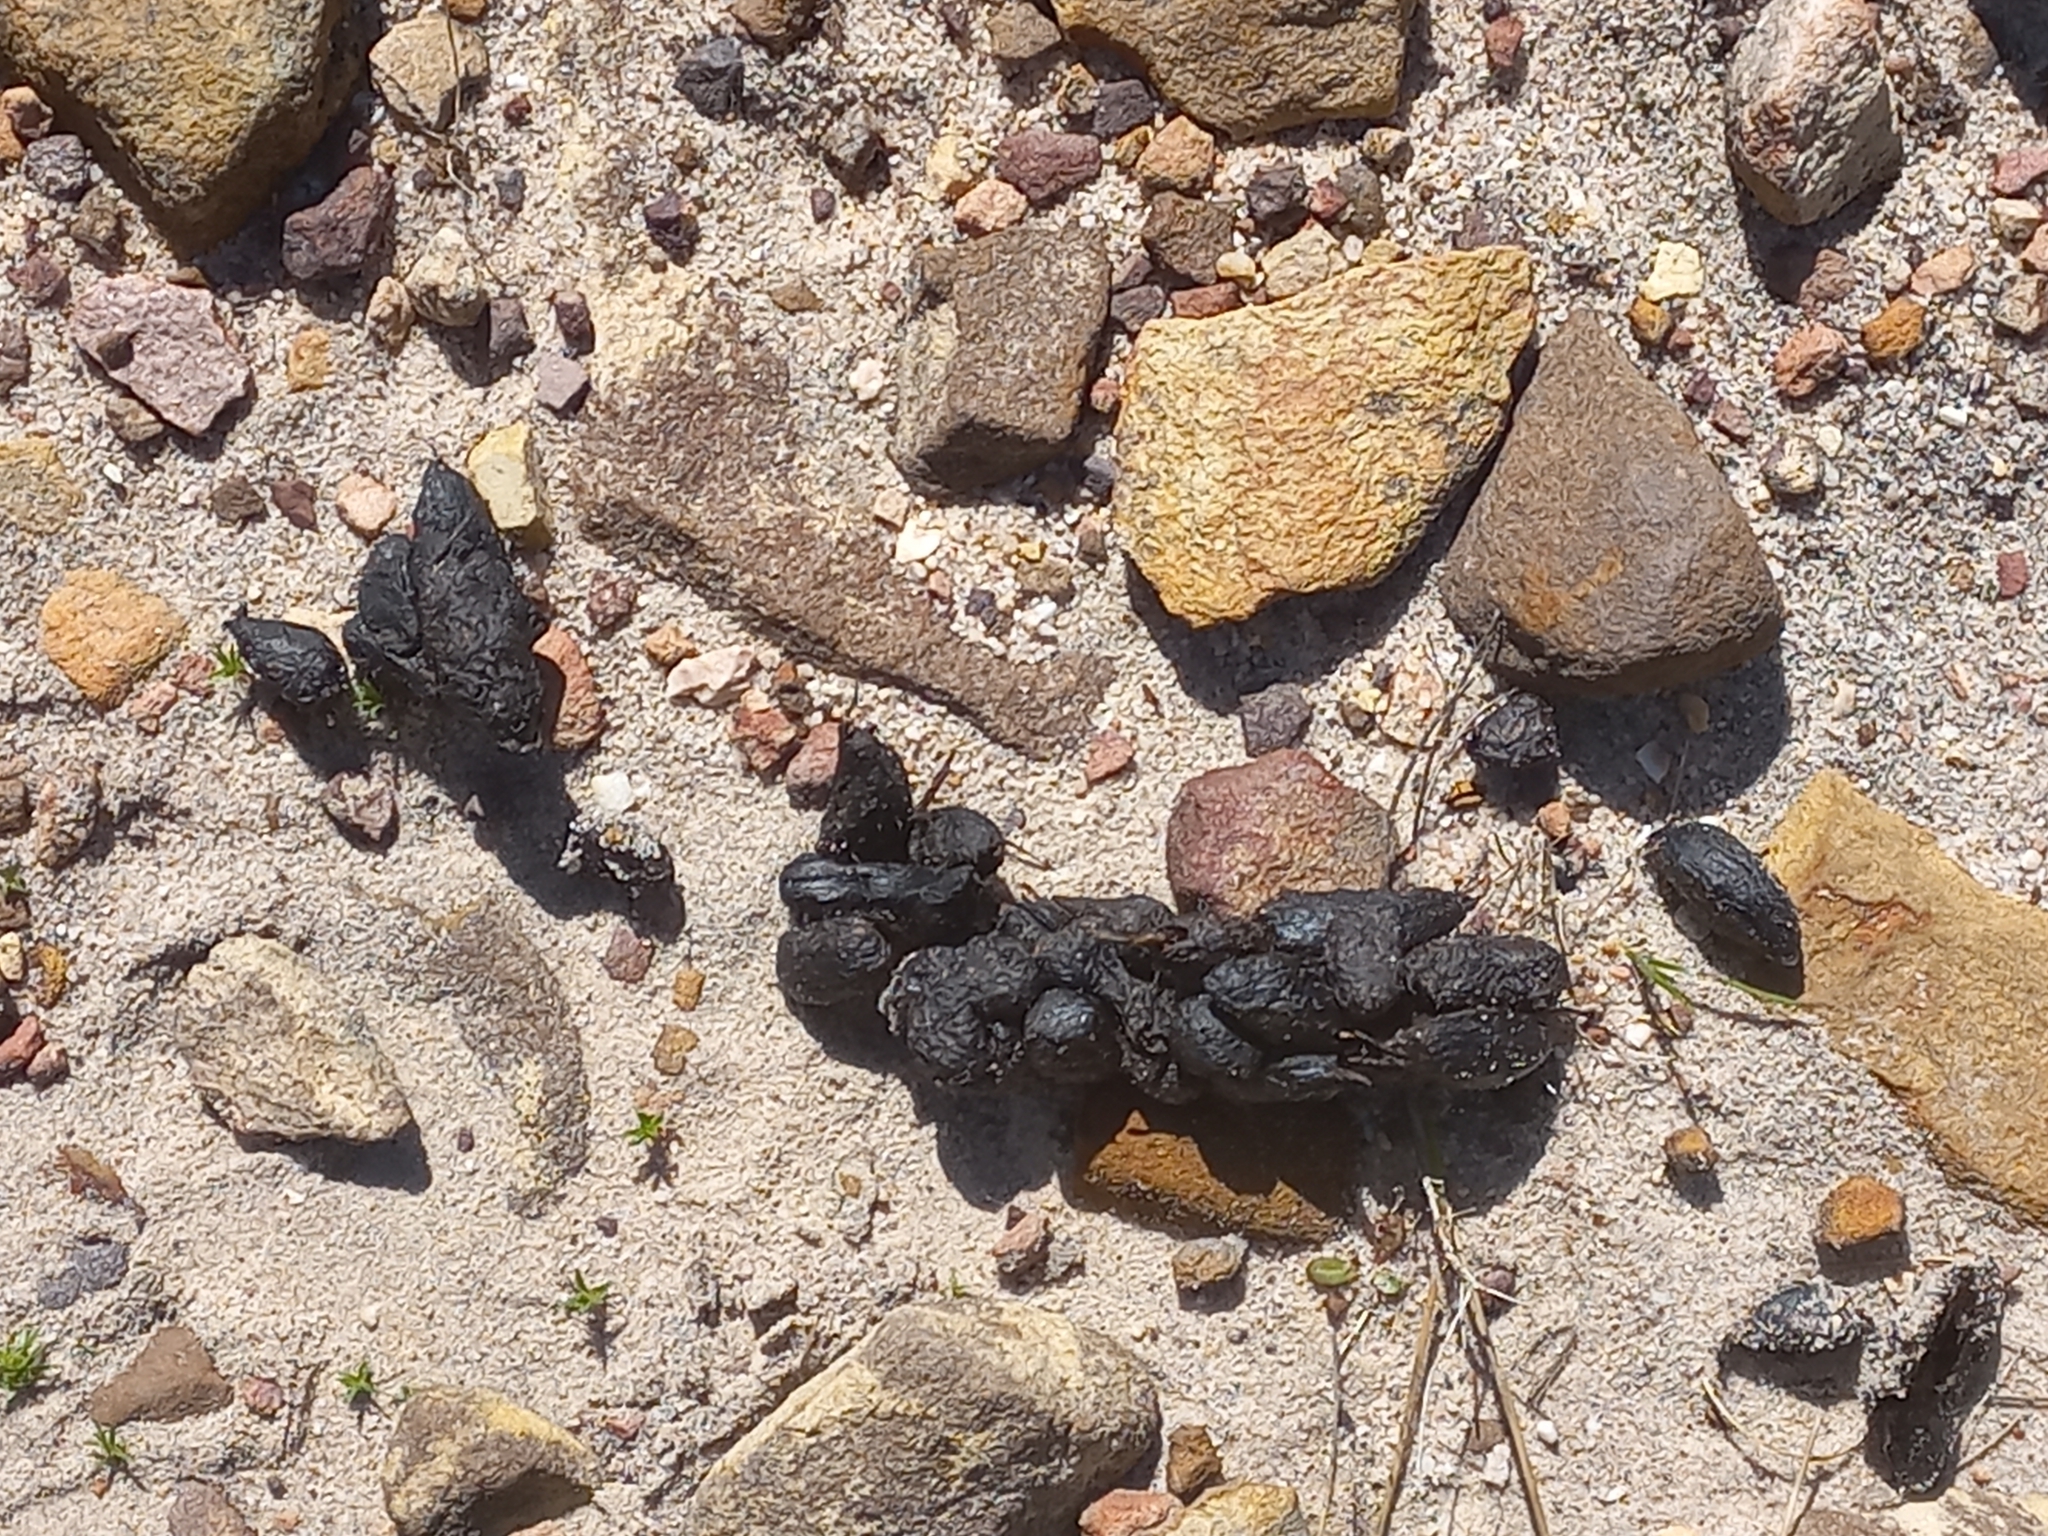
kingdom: Animalia
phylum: Chordata
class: Mammalia
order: Rodentia
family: Hystricidae
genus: Hystrix
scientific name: Hystrix africaeaustralis
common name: Cape porcupine
